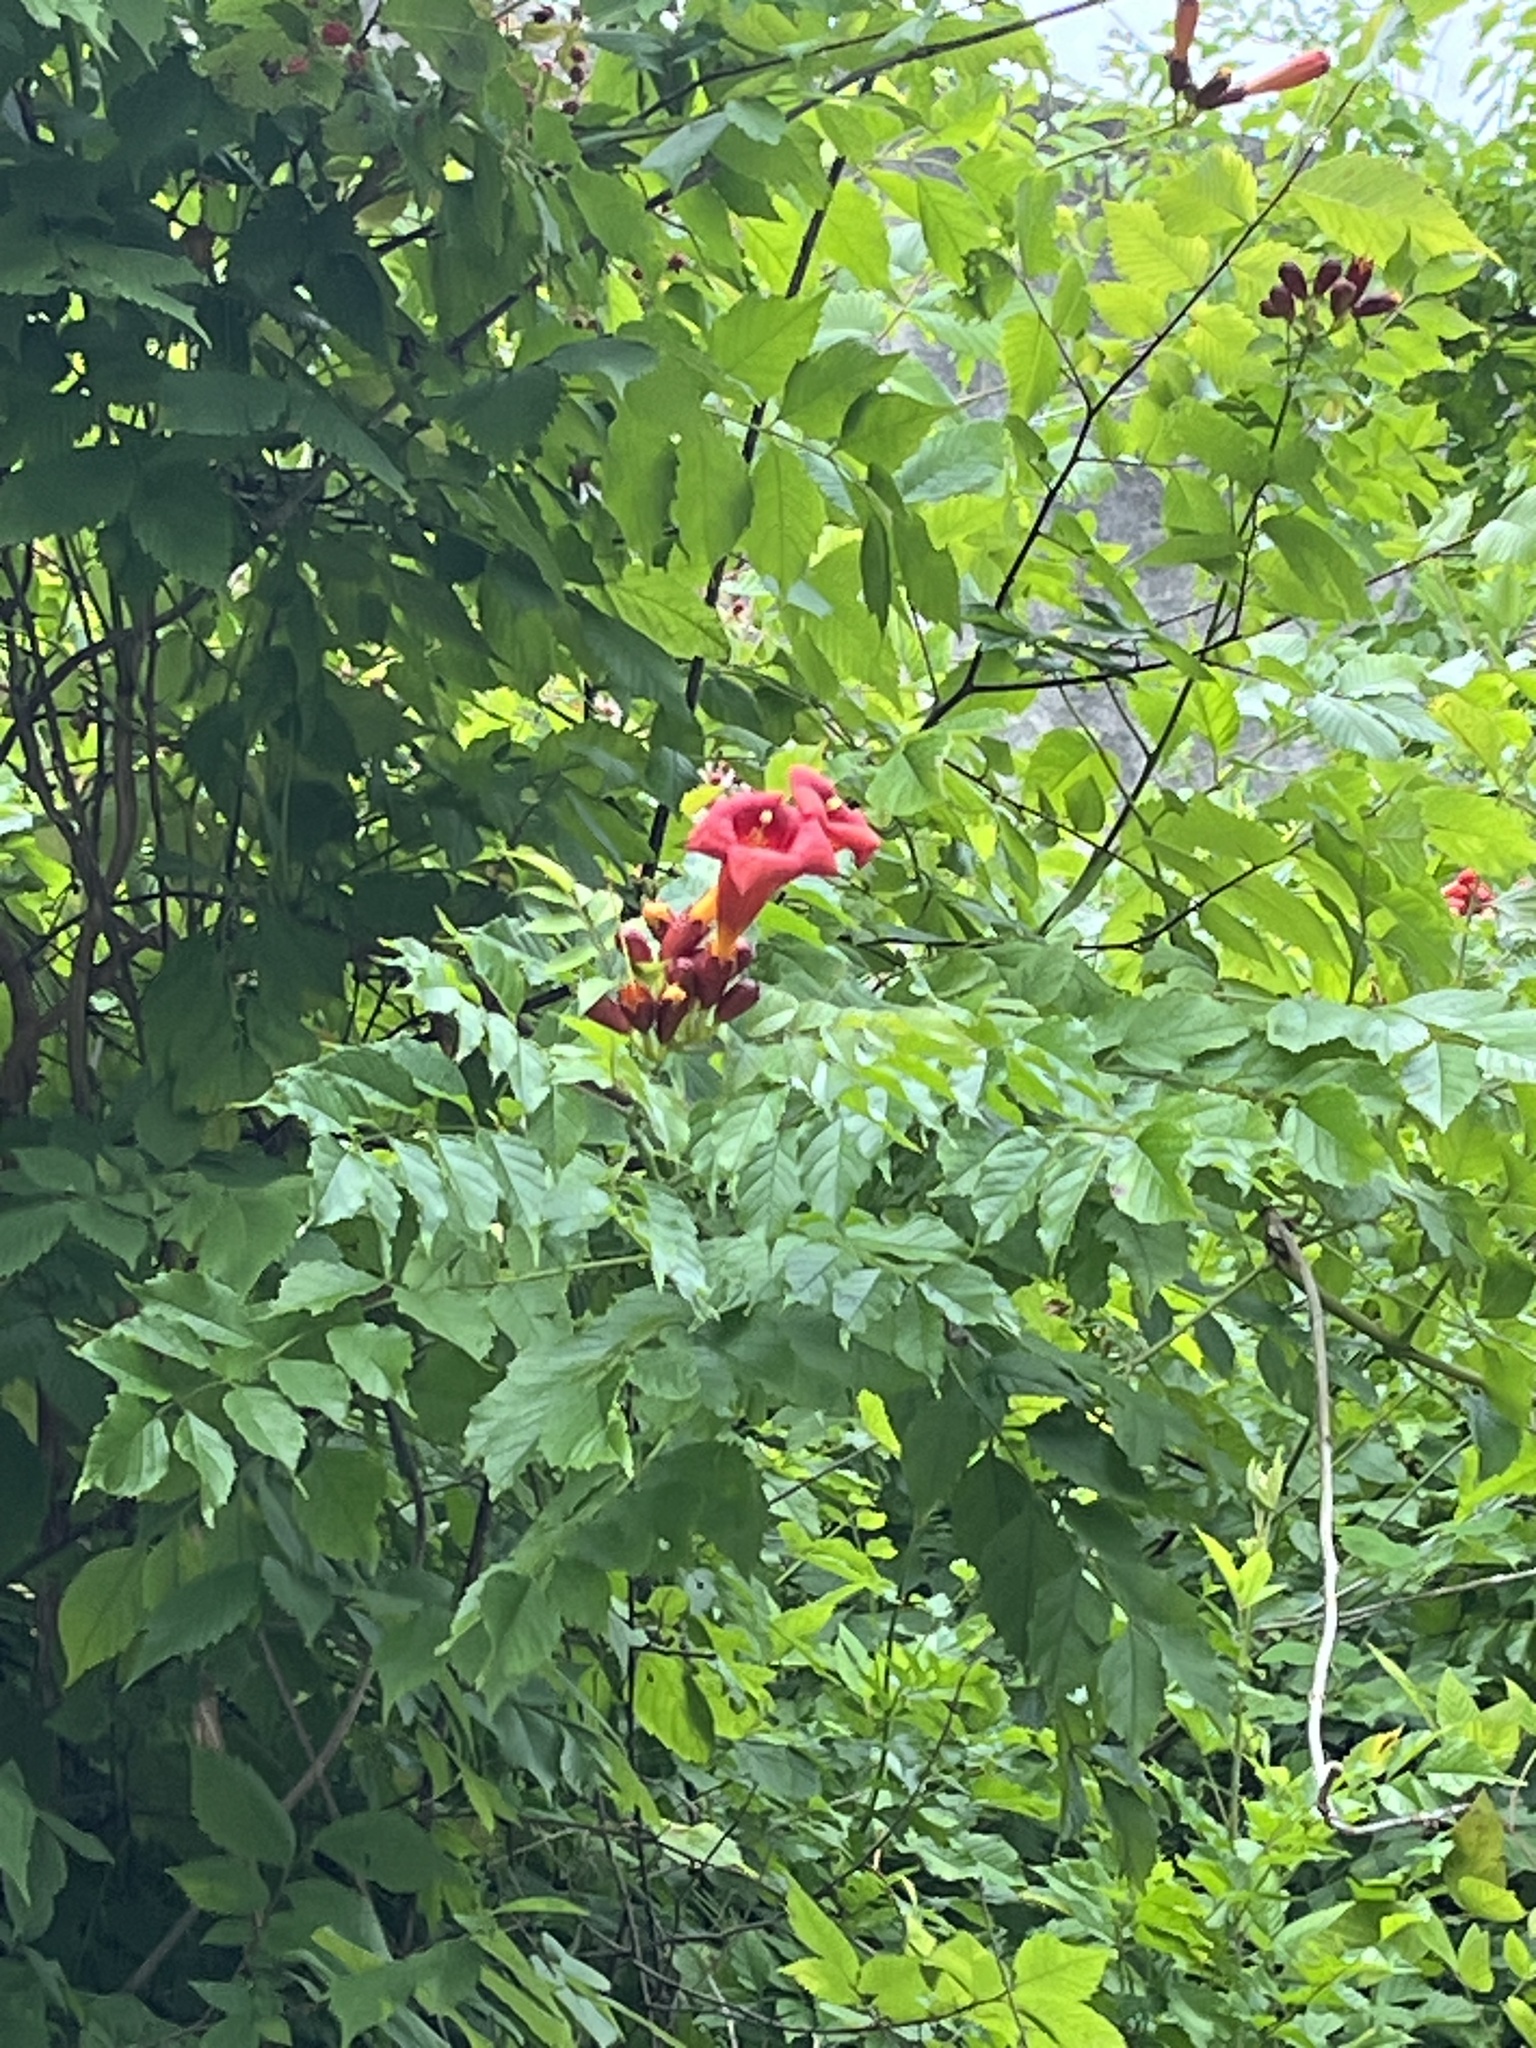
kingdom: Plantae
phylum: Tracheophyta
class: Magnoliopsida
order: Lamiales
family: Bignoniaceae
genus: Campsis
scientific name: Campsis radicans
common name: Trumpet-creeper
